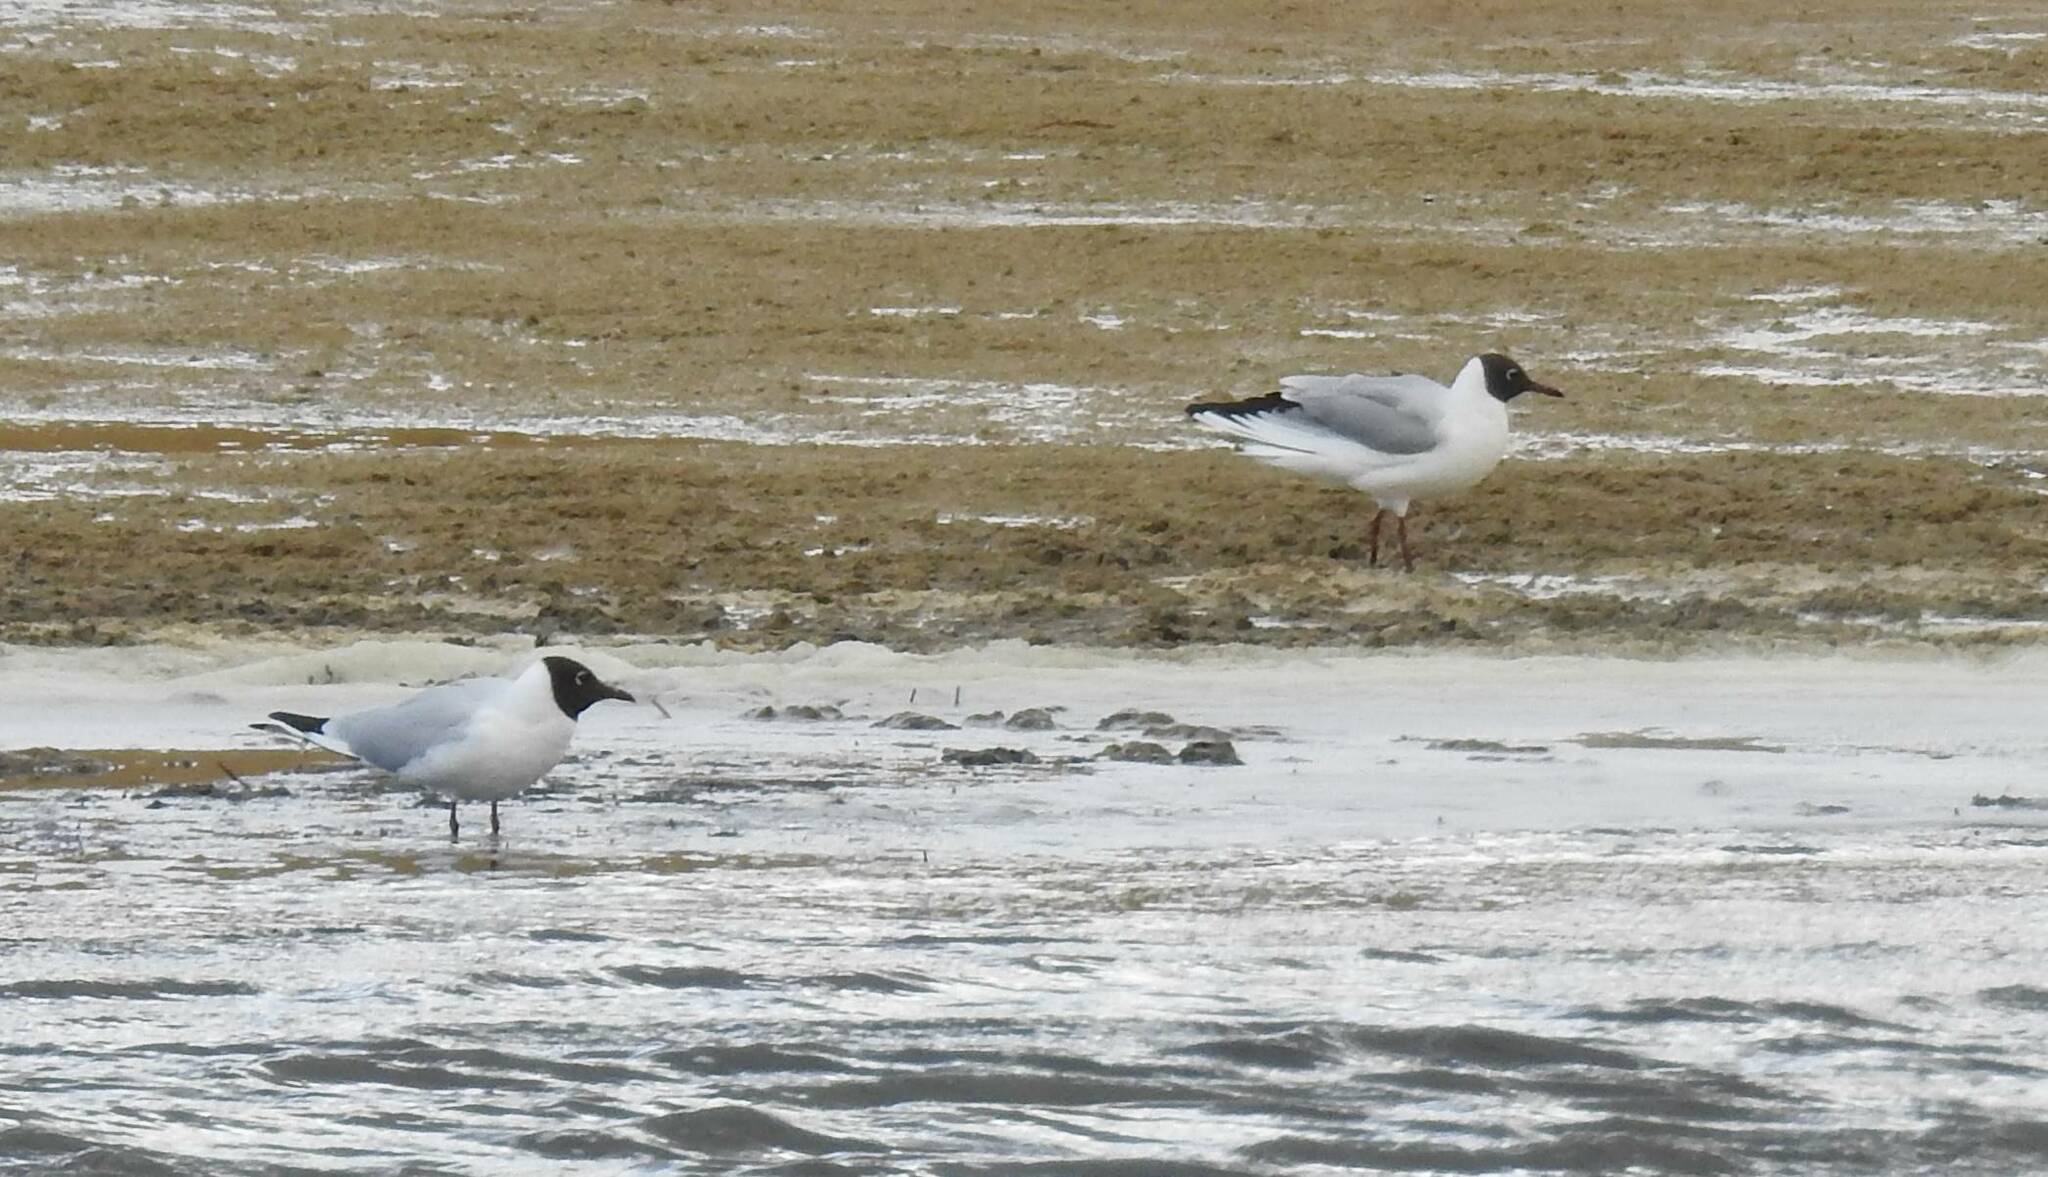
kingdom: Animalia
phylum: Chordata
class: Aves
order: Charadriiformes
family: Laridae
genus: Chroicocephalus
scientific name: Chroicocephalus ridibundus
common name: Black-headed gull
